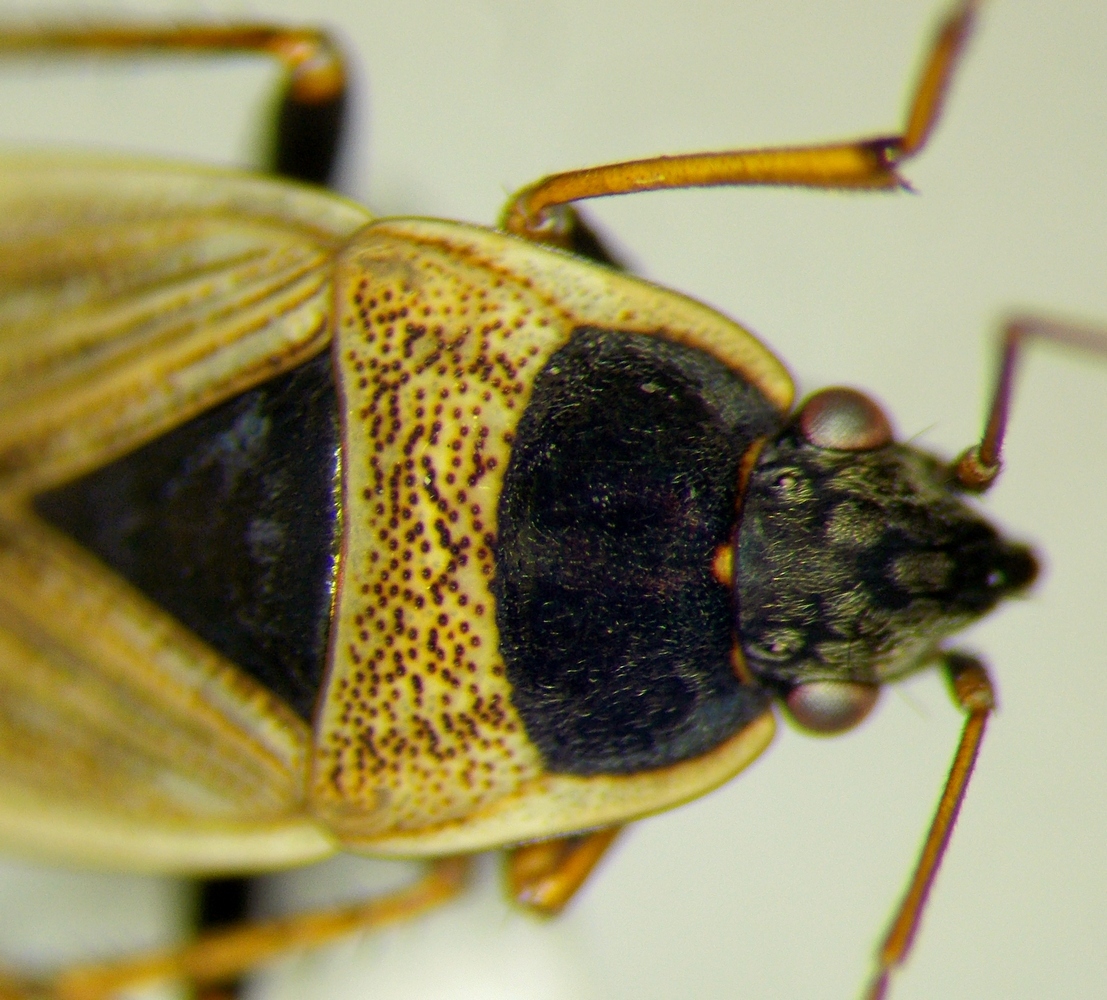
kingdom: Animalia
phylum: Arthropoda
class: Insecta
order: Hemiptera
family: Rhyparochromidae
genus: Xanthochilus
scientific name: Xanthochilus omissus
